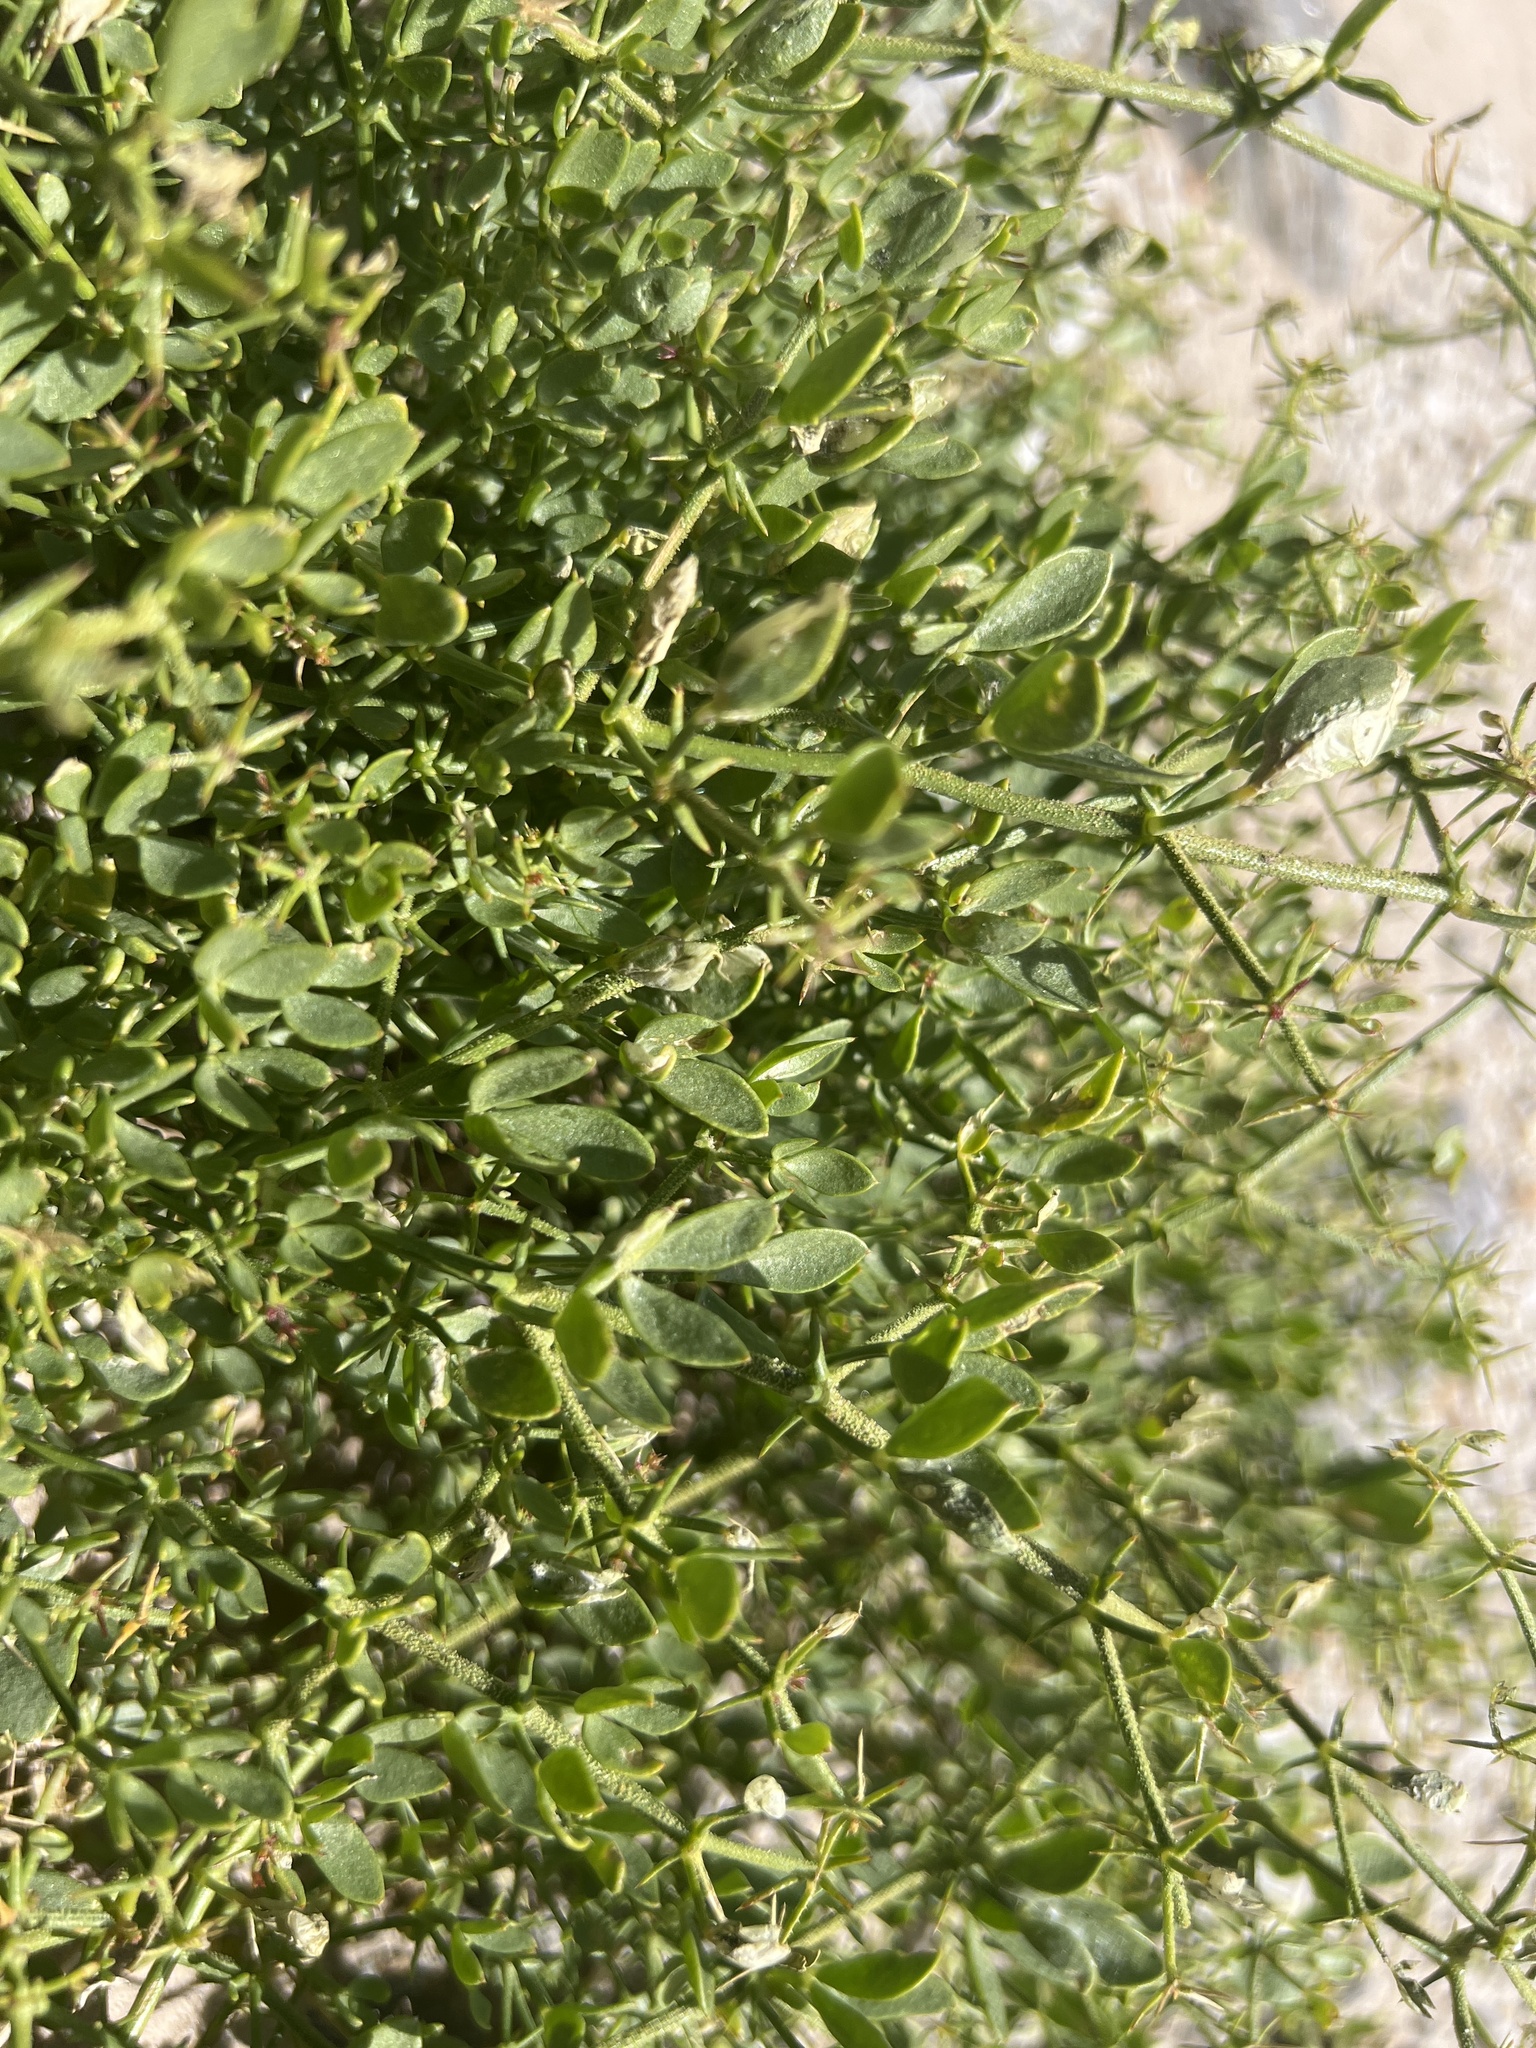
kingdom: Plantae
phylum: Tracheophyta
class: Magnoliopsida
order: Zygophyllales
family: Zygophyllaceae
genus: Fagonia
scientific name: Fagonia pachyacantha
